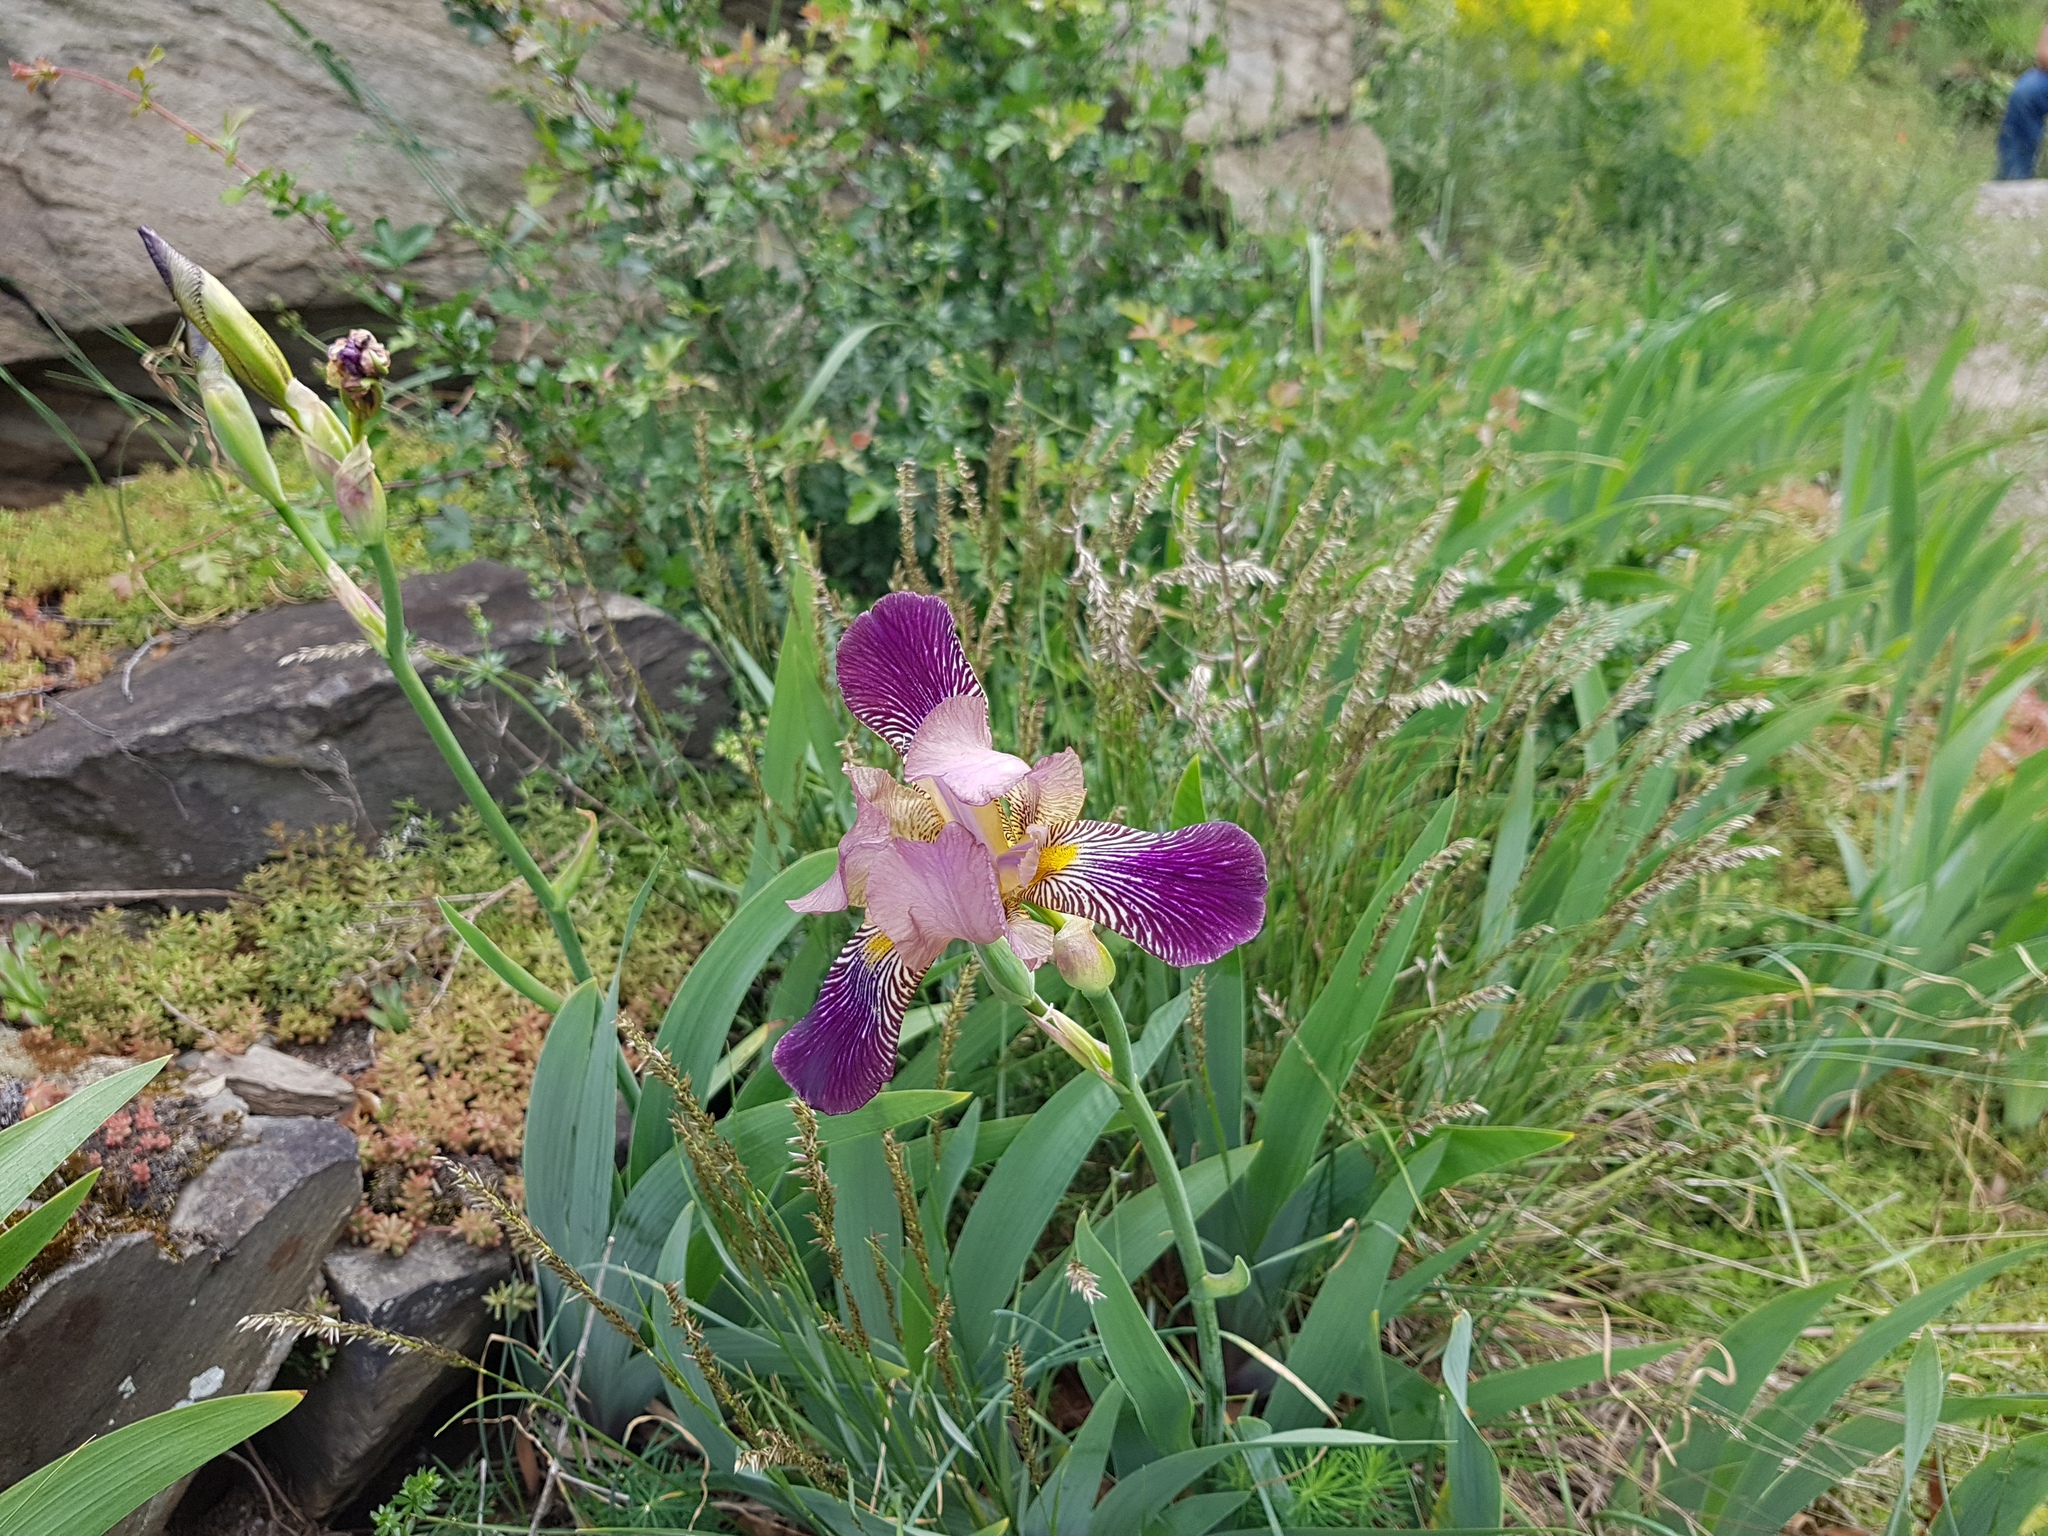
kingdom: Plantae
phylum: Tracheophyta
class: Liliopsida
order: Asparagales
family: Iridaceae
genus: Iris
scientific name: Iris germanica
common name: German iris
